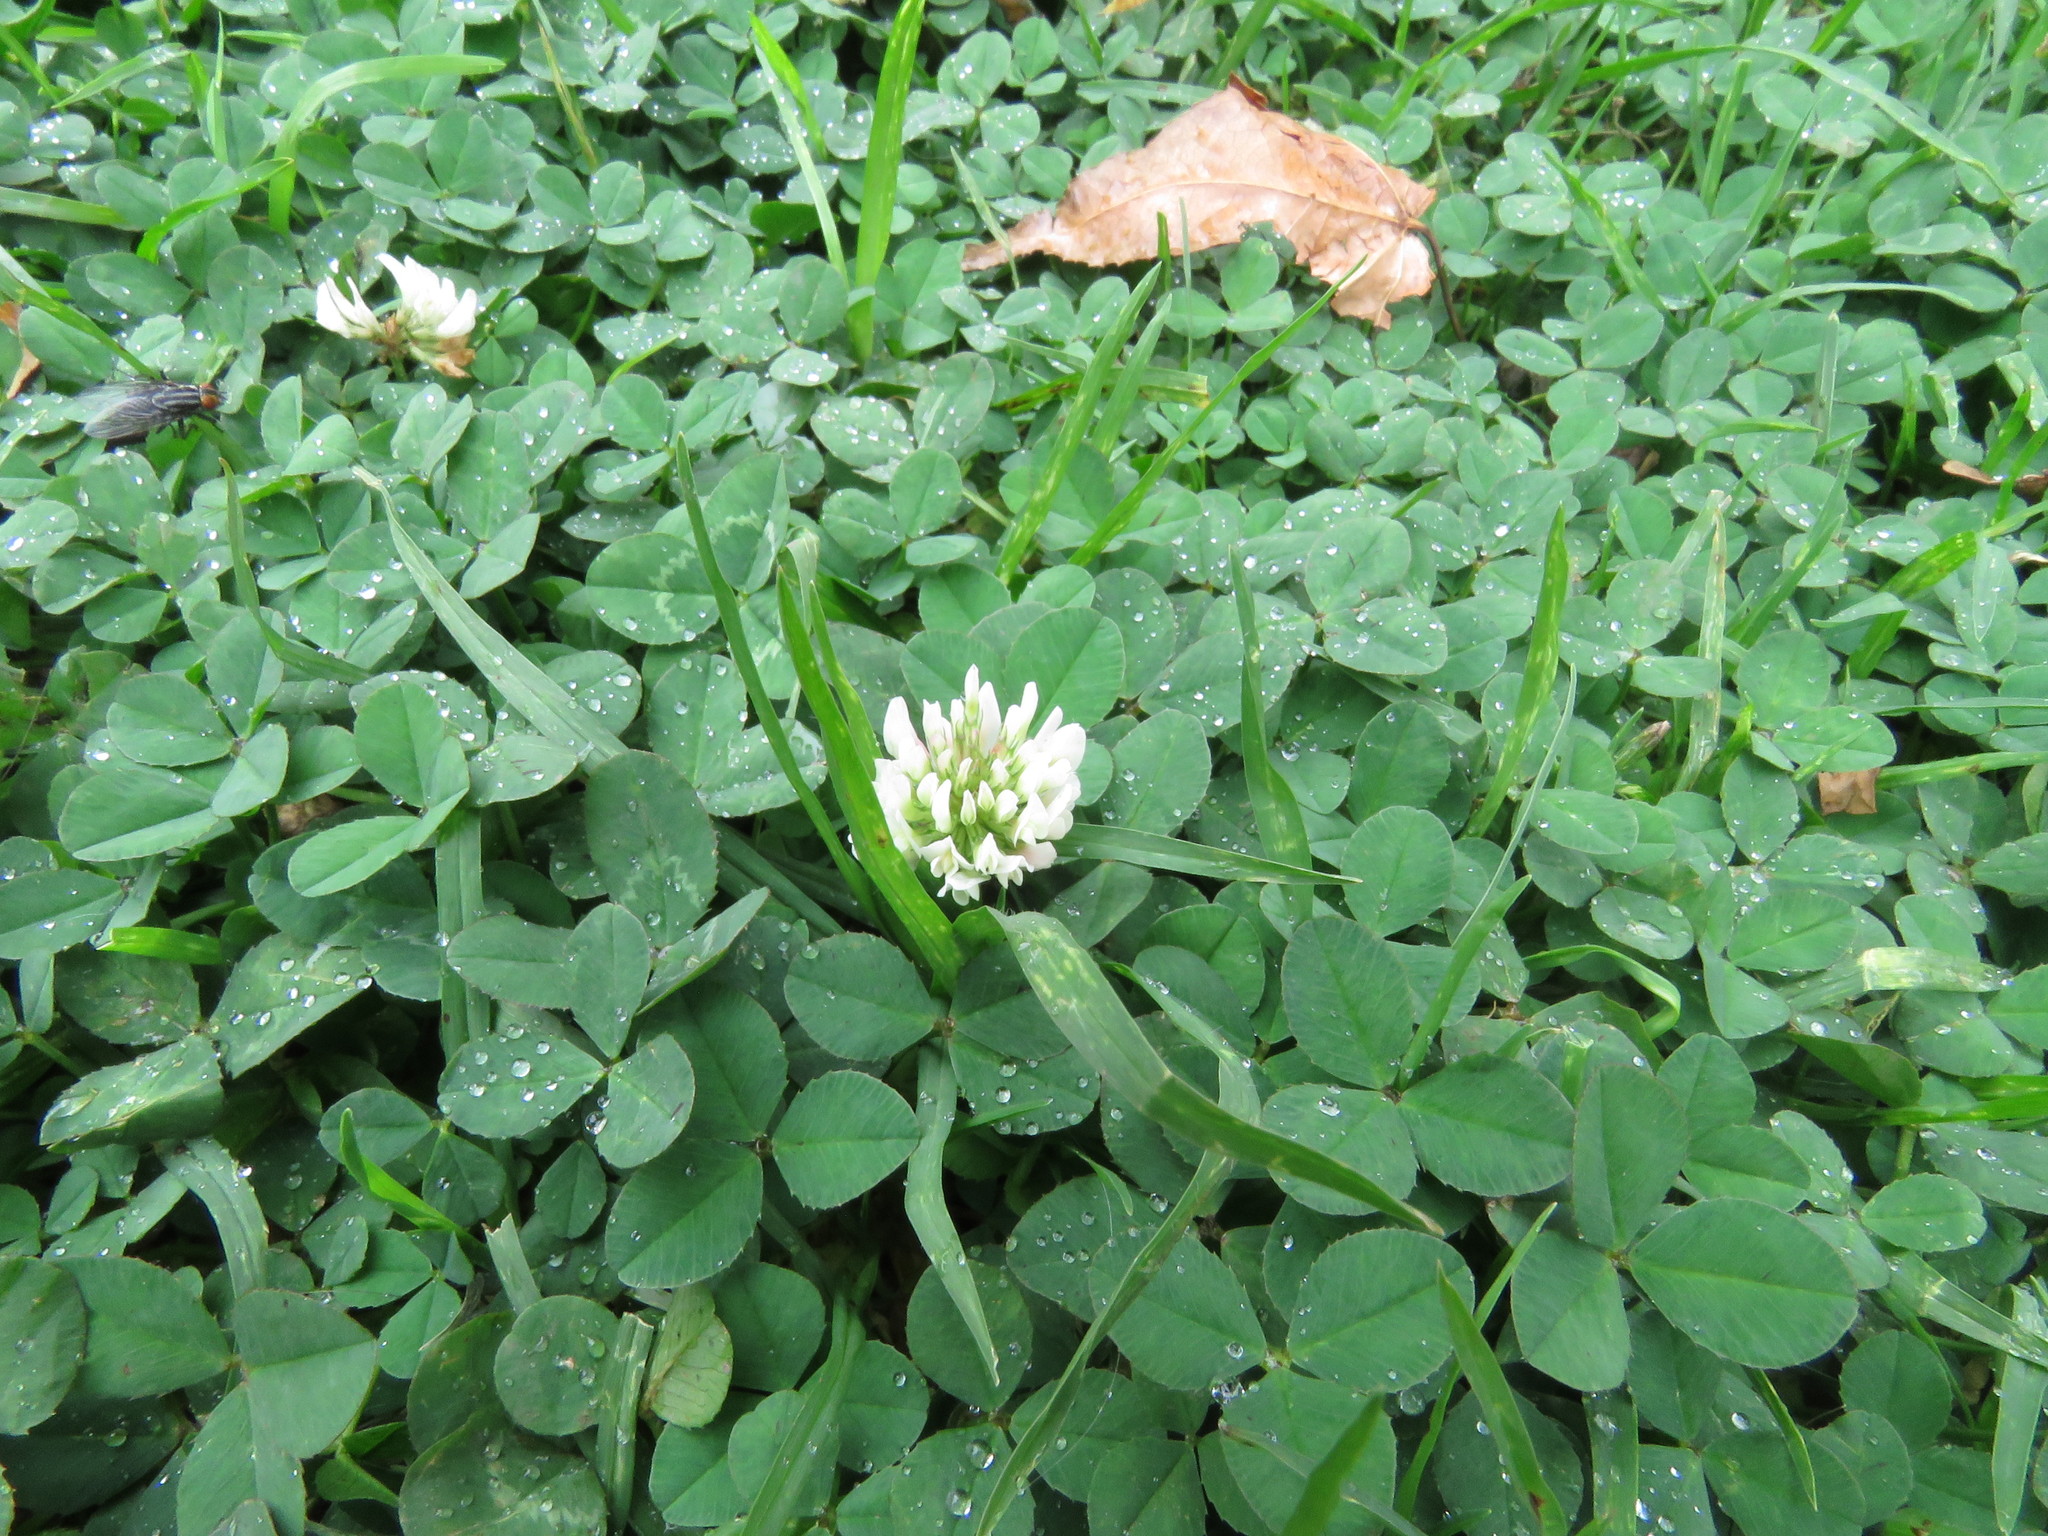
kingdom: Plantae
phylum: Tracheophyta
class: Magnoliopsida
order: Fabales
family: Fabaceae
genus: Trifolium
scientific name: Trifolium repens
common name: White clover
